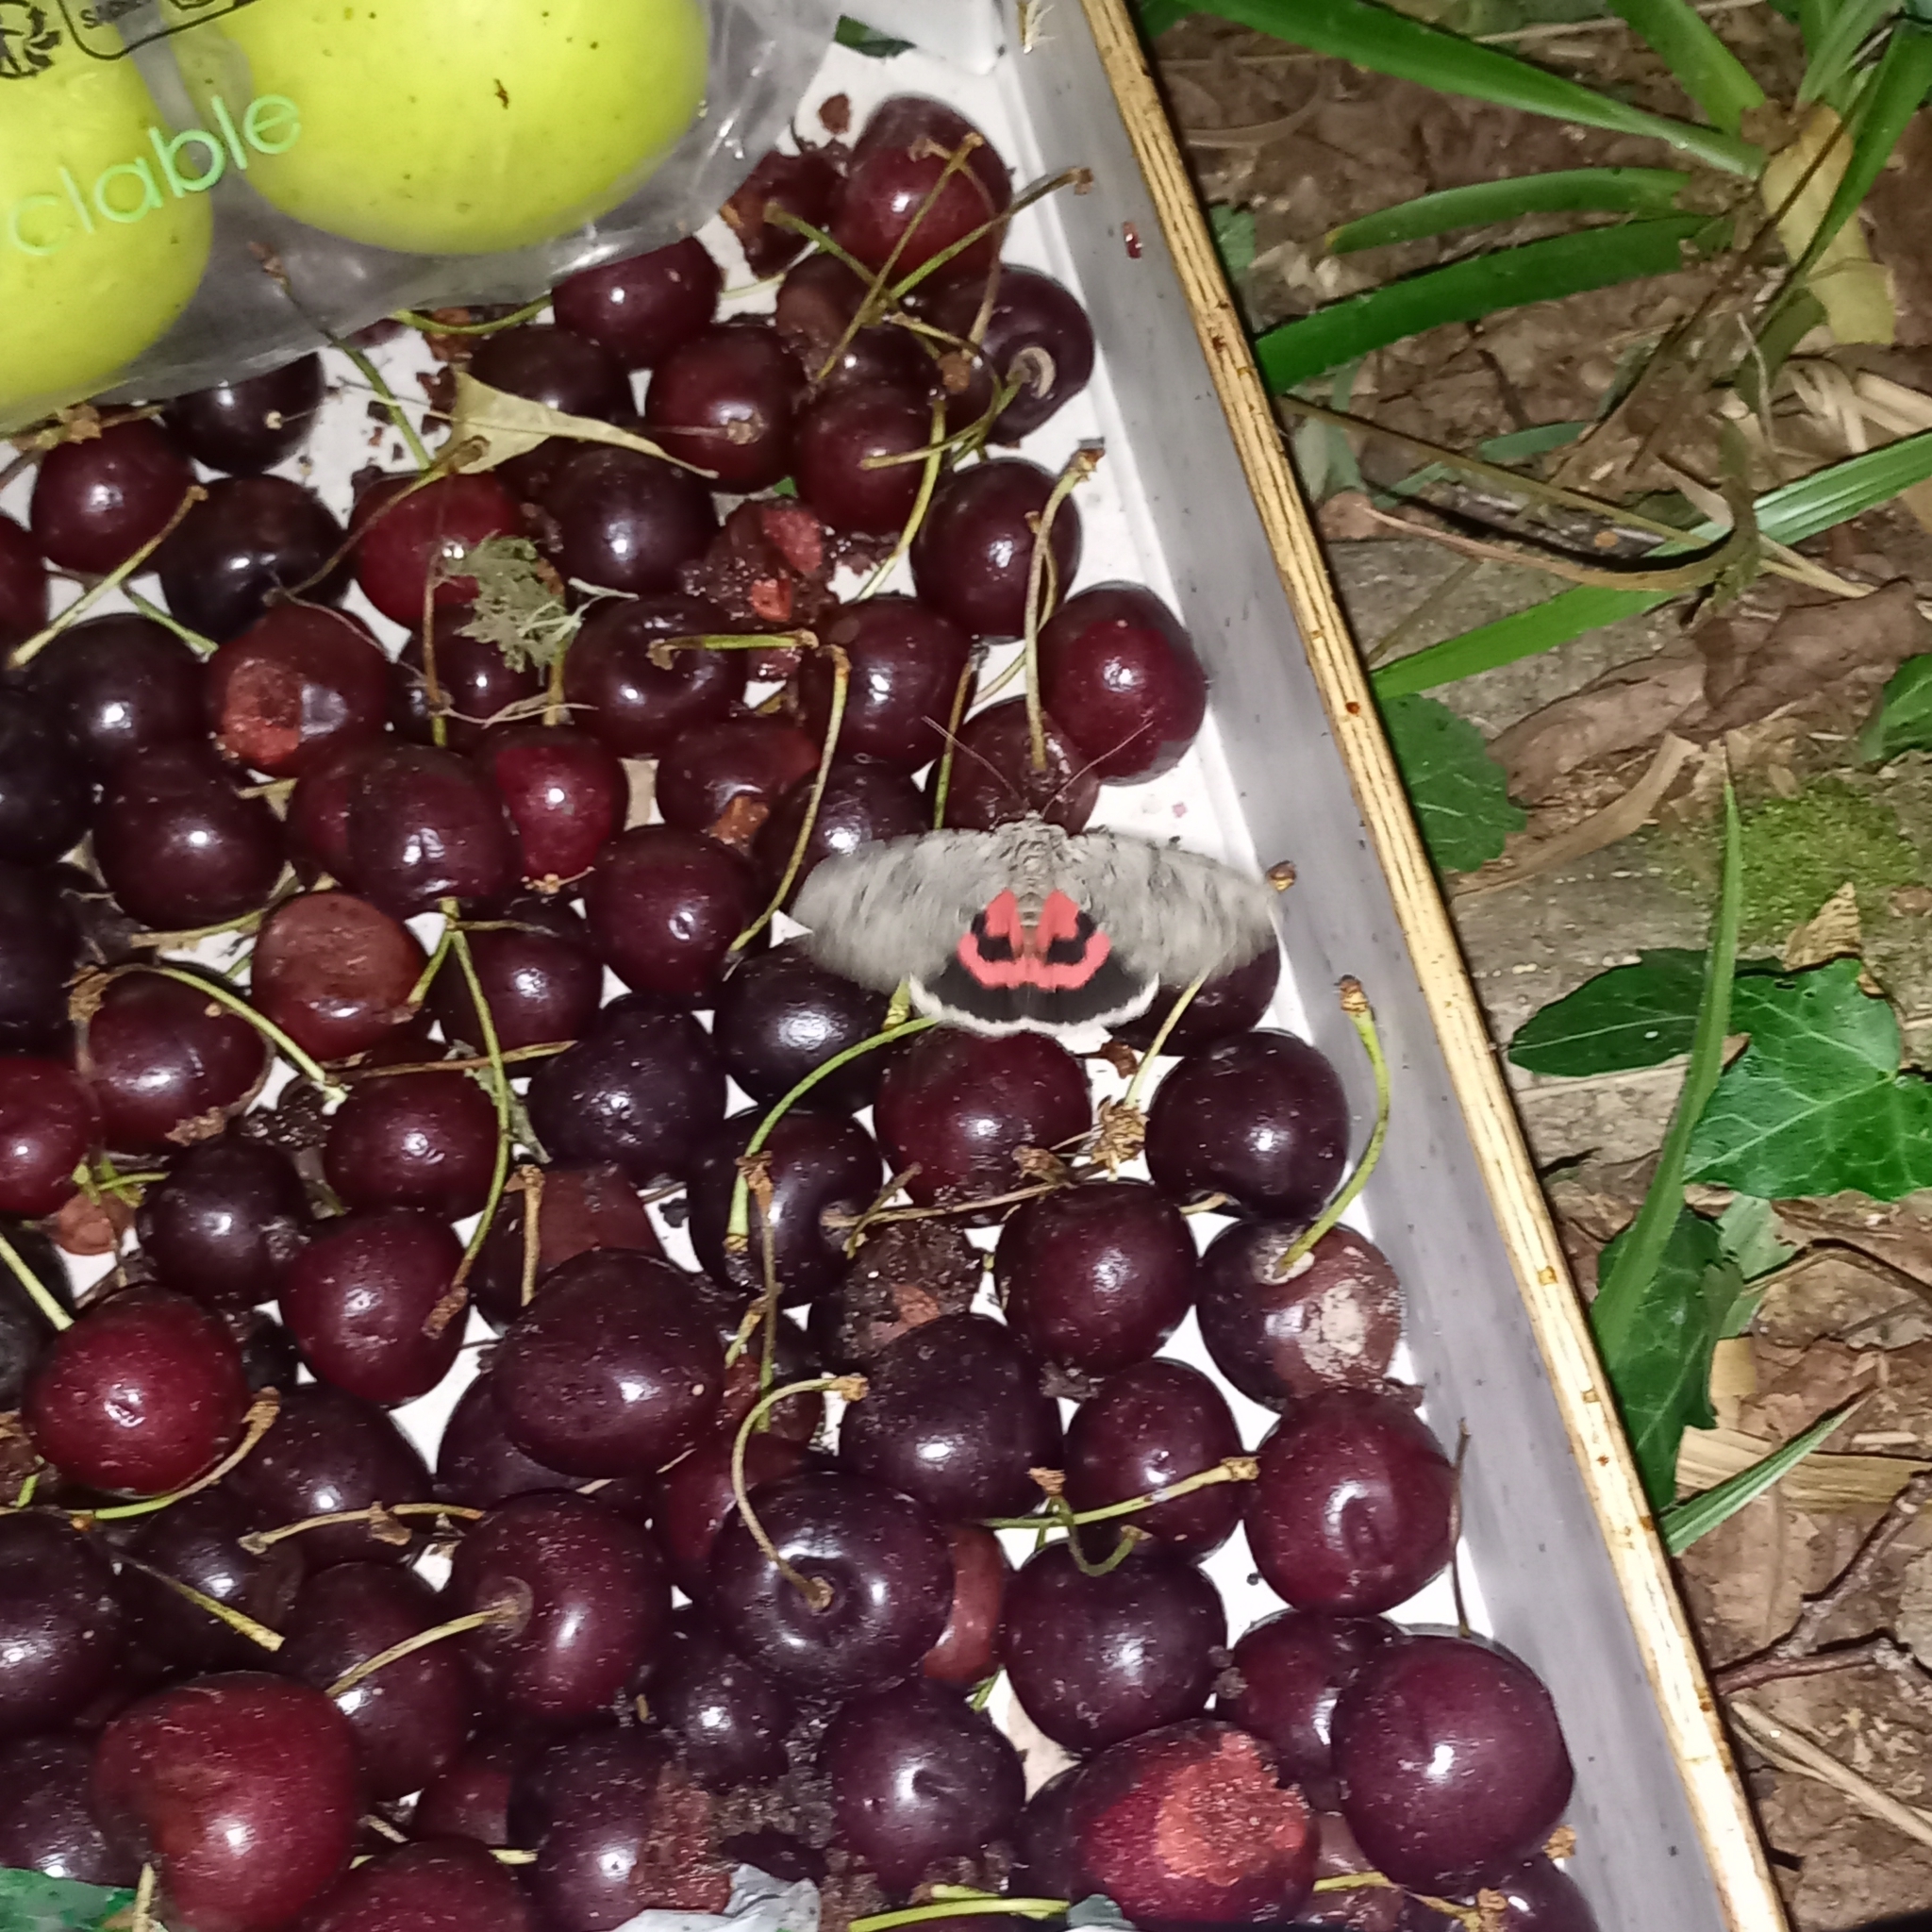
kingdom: Animalia
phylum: Arthropoda
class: Insecta
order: Lepidoptera
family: Erebidae
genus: Catocala
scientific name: Catocala electa
